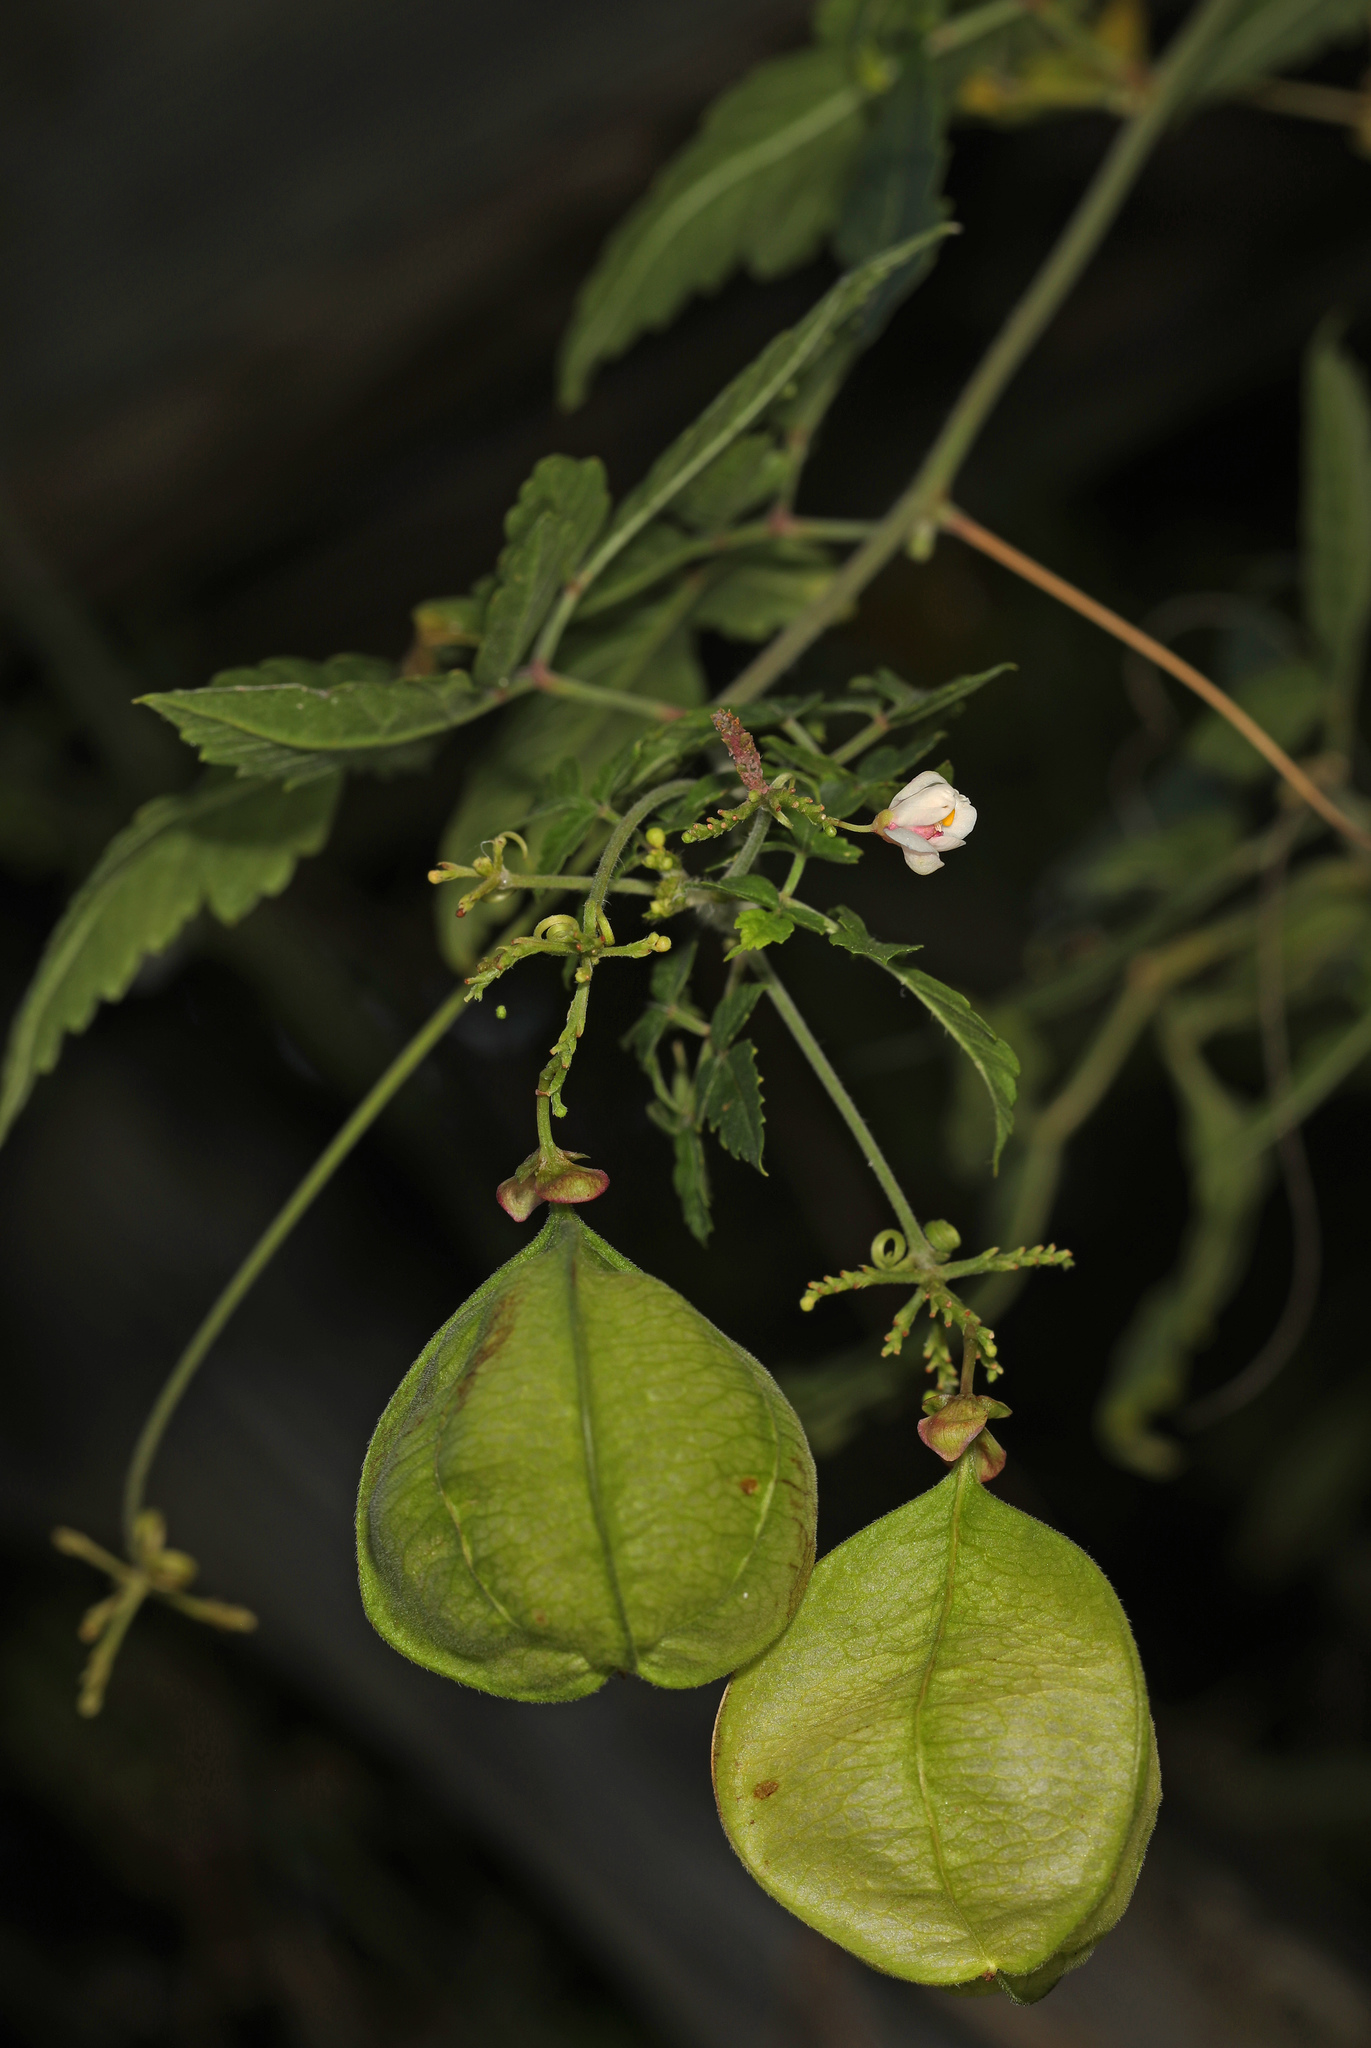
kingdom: Plantae
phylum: Tracheophyta
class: Magnoliopsida
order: Sapindales
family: Sapindaceae
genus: Cardiospermum
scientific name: Cardiospermum halicacabum
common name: Balloon vine
